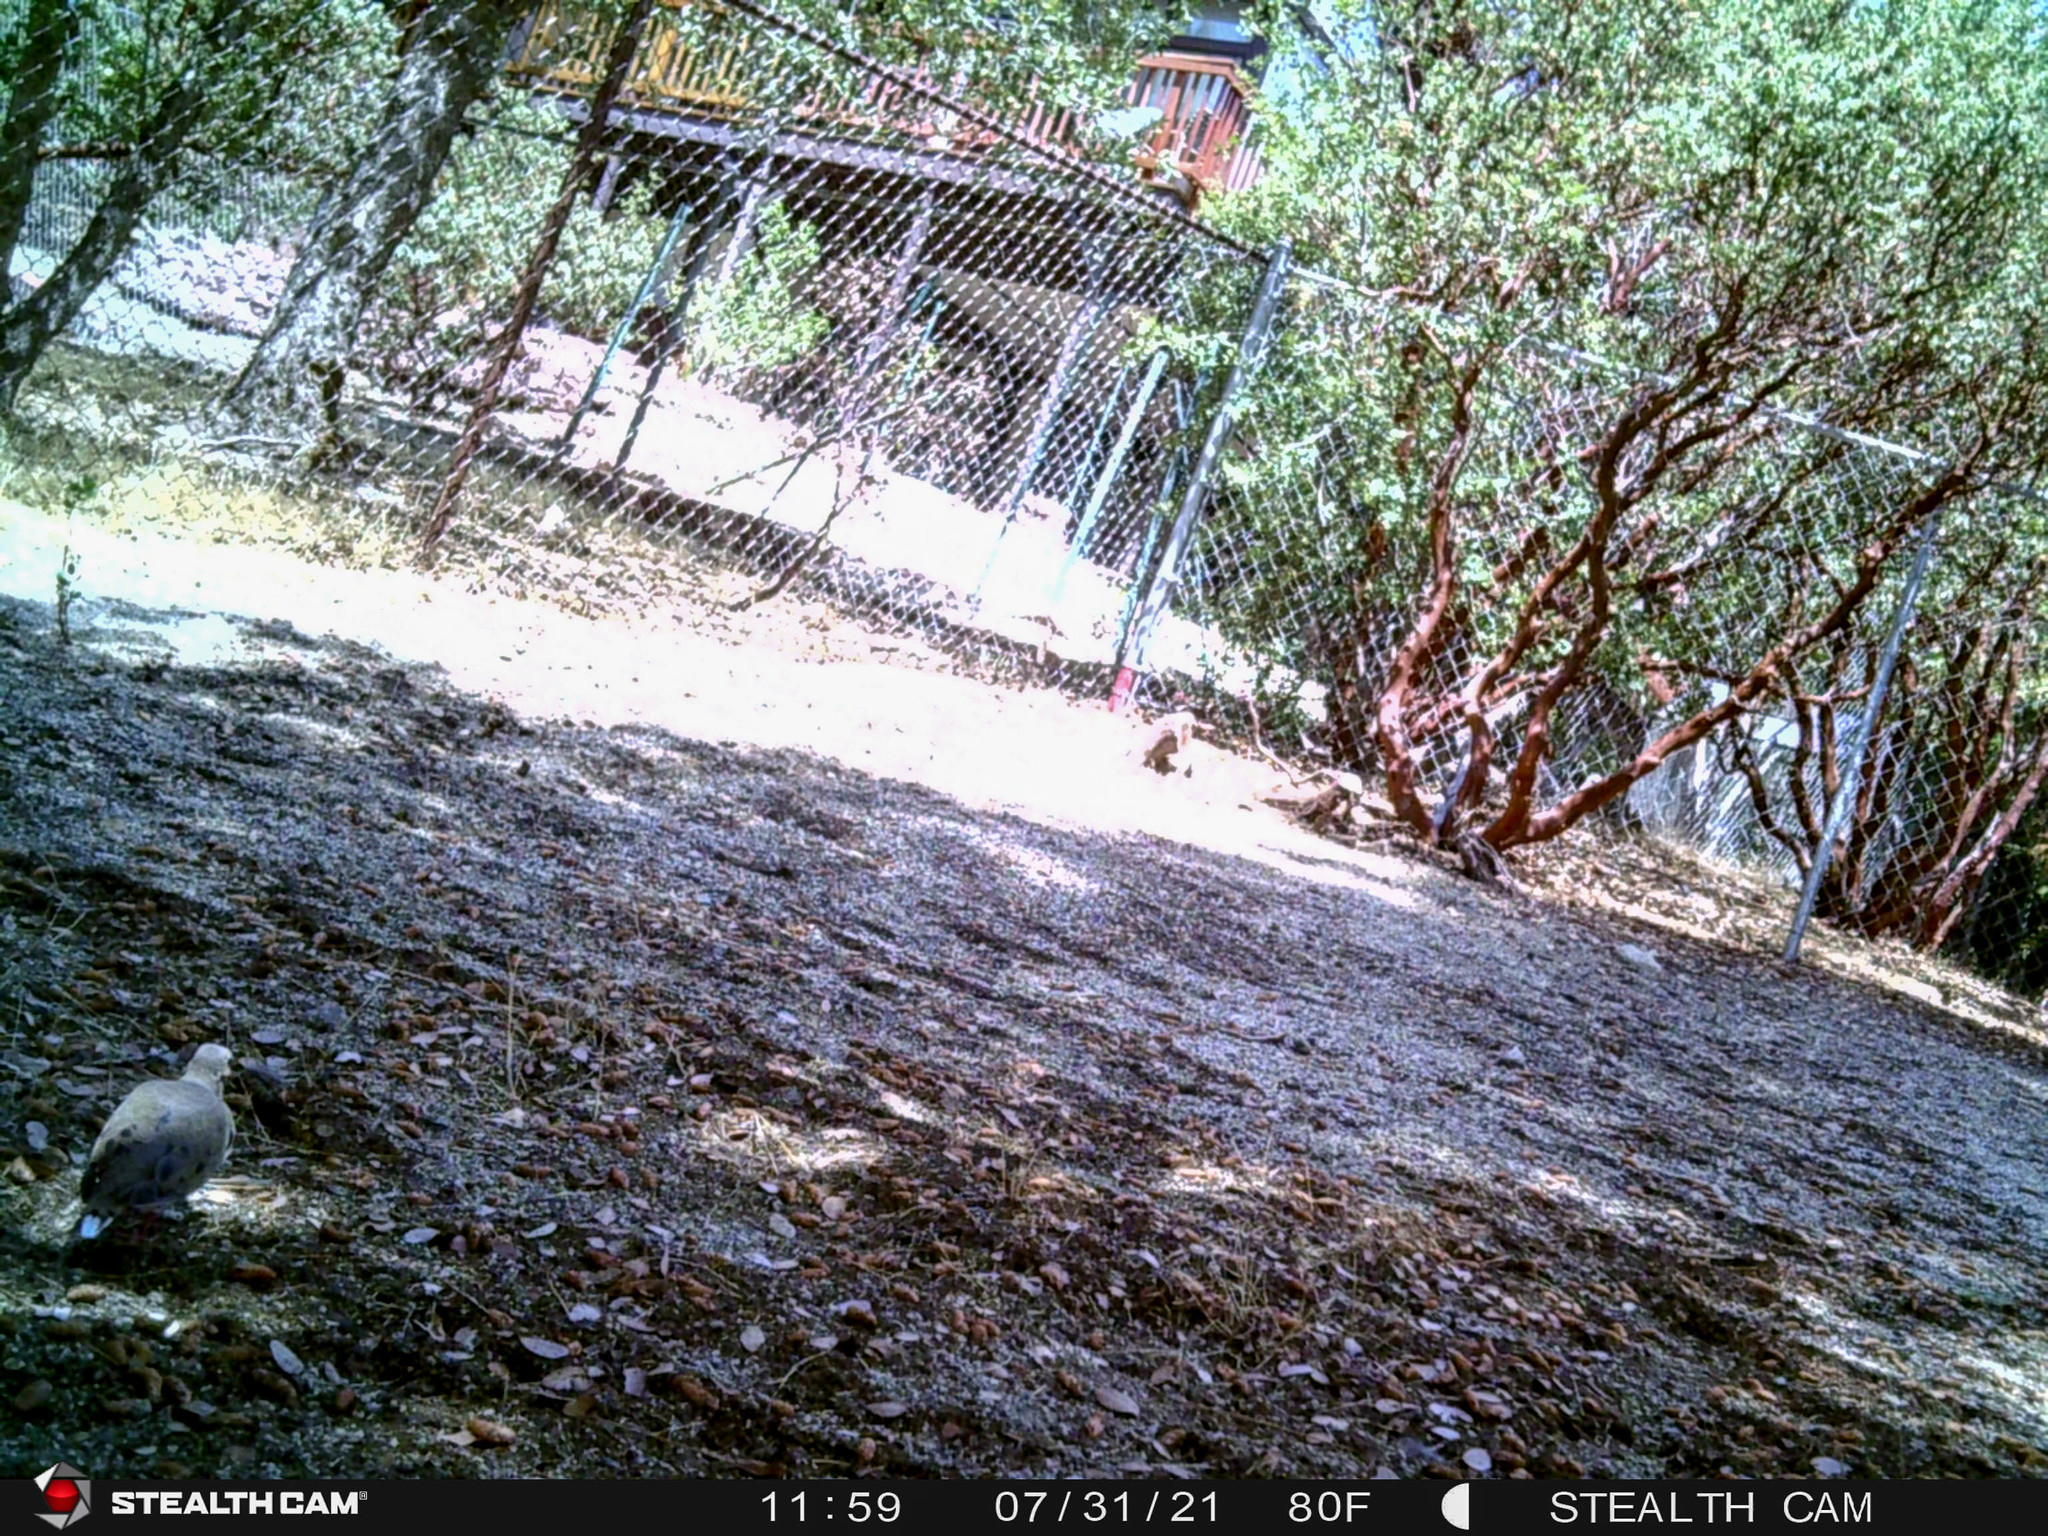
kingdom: Animalia
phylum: Chordata
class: Aves
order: Columbiformes
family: Columbidae
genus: Zenaida
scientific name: Zenaida macroura
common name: Mourning dove
